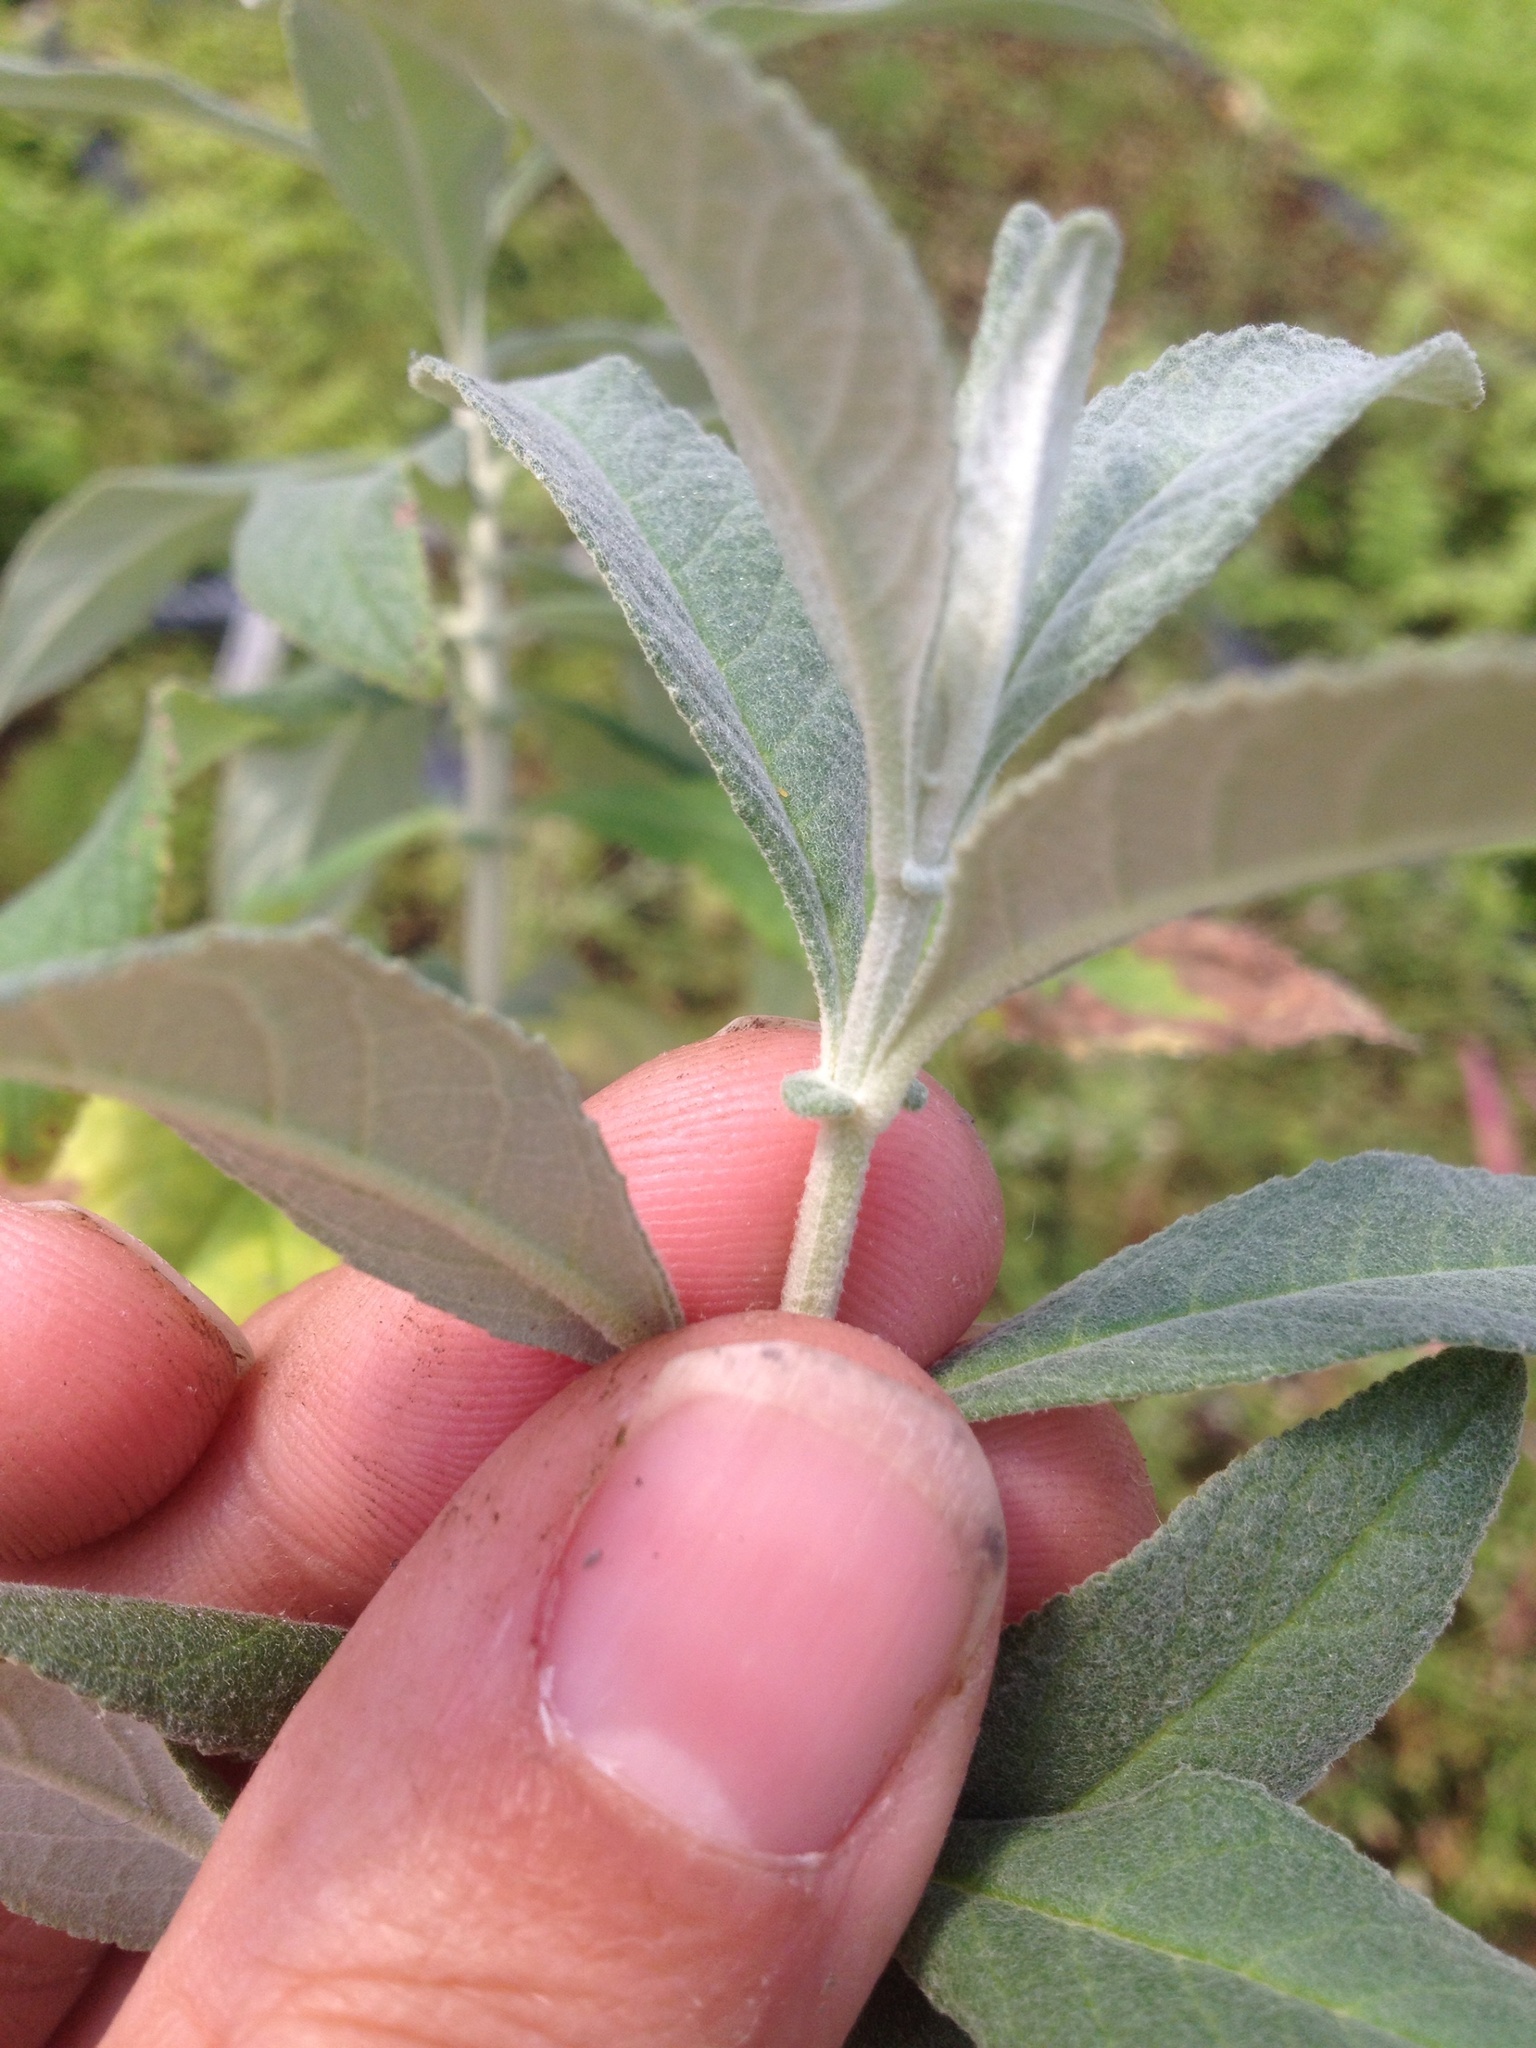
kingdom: Plantae
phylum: Tracheophyta
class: Magnoliopsida
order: Lamiales
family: Scrophulariaceae
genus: Buddleja
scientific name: Buddleja davidii
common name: Butterfly-bush
